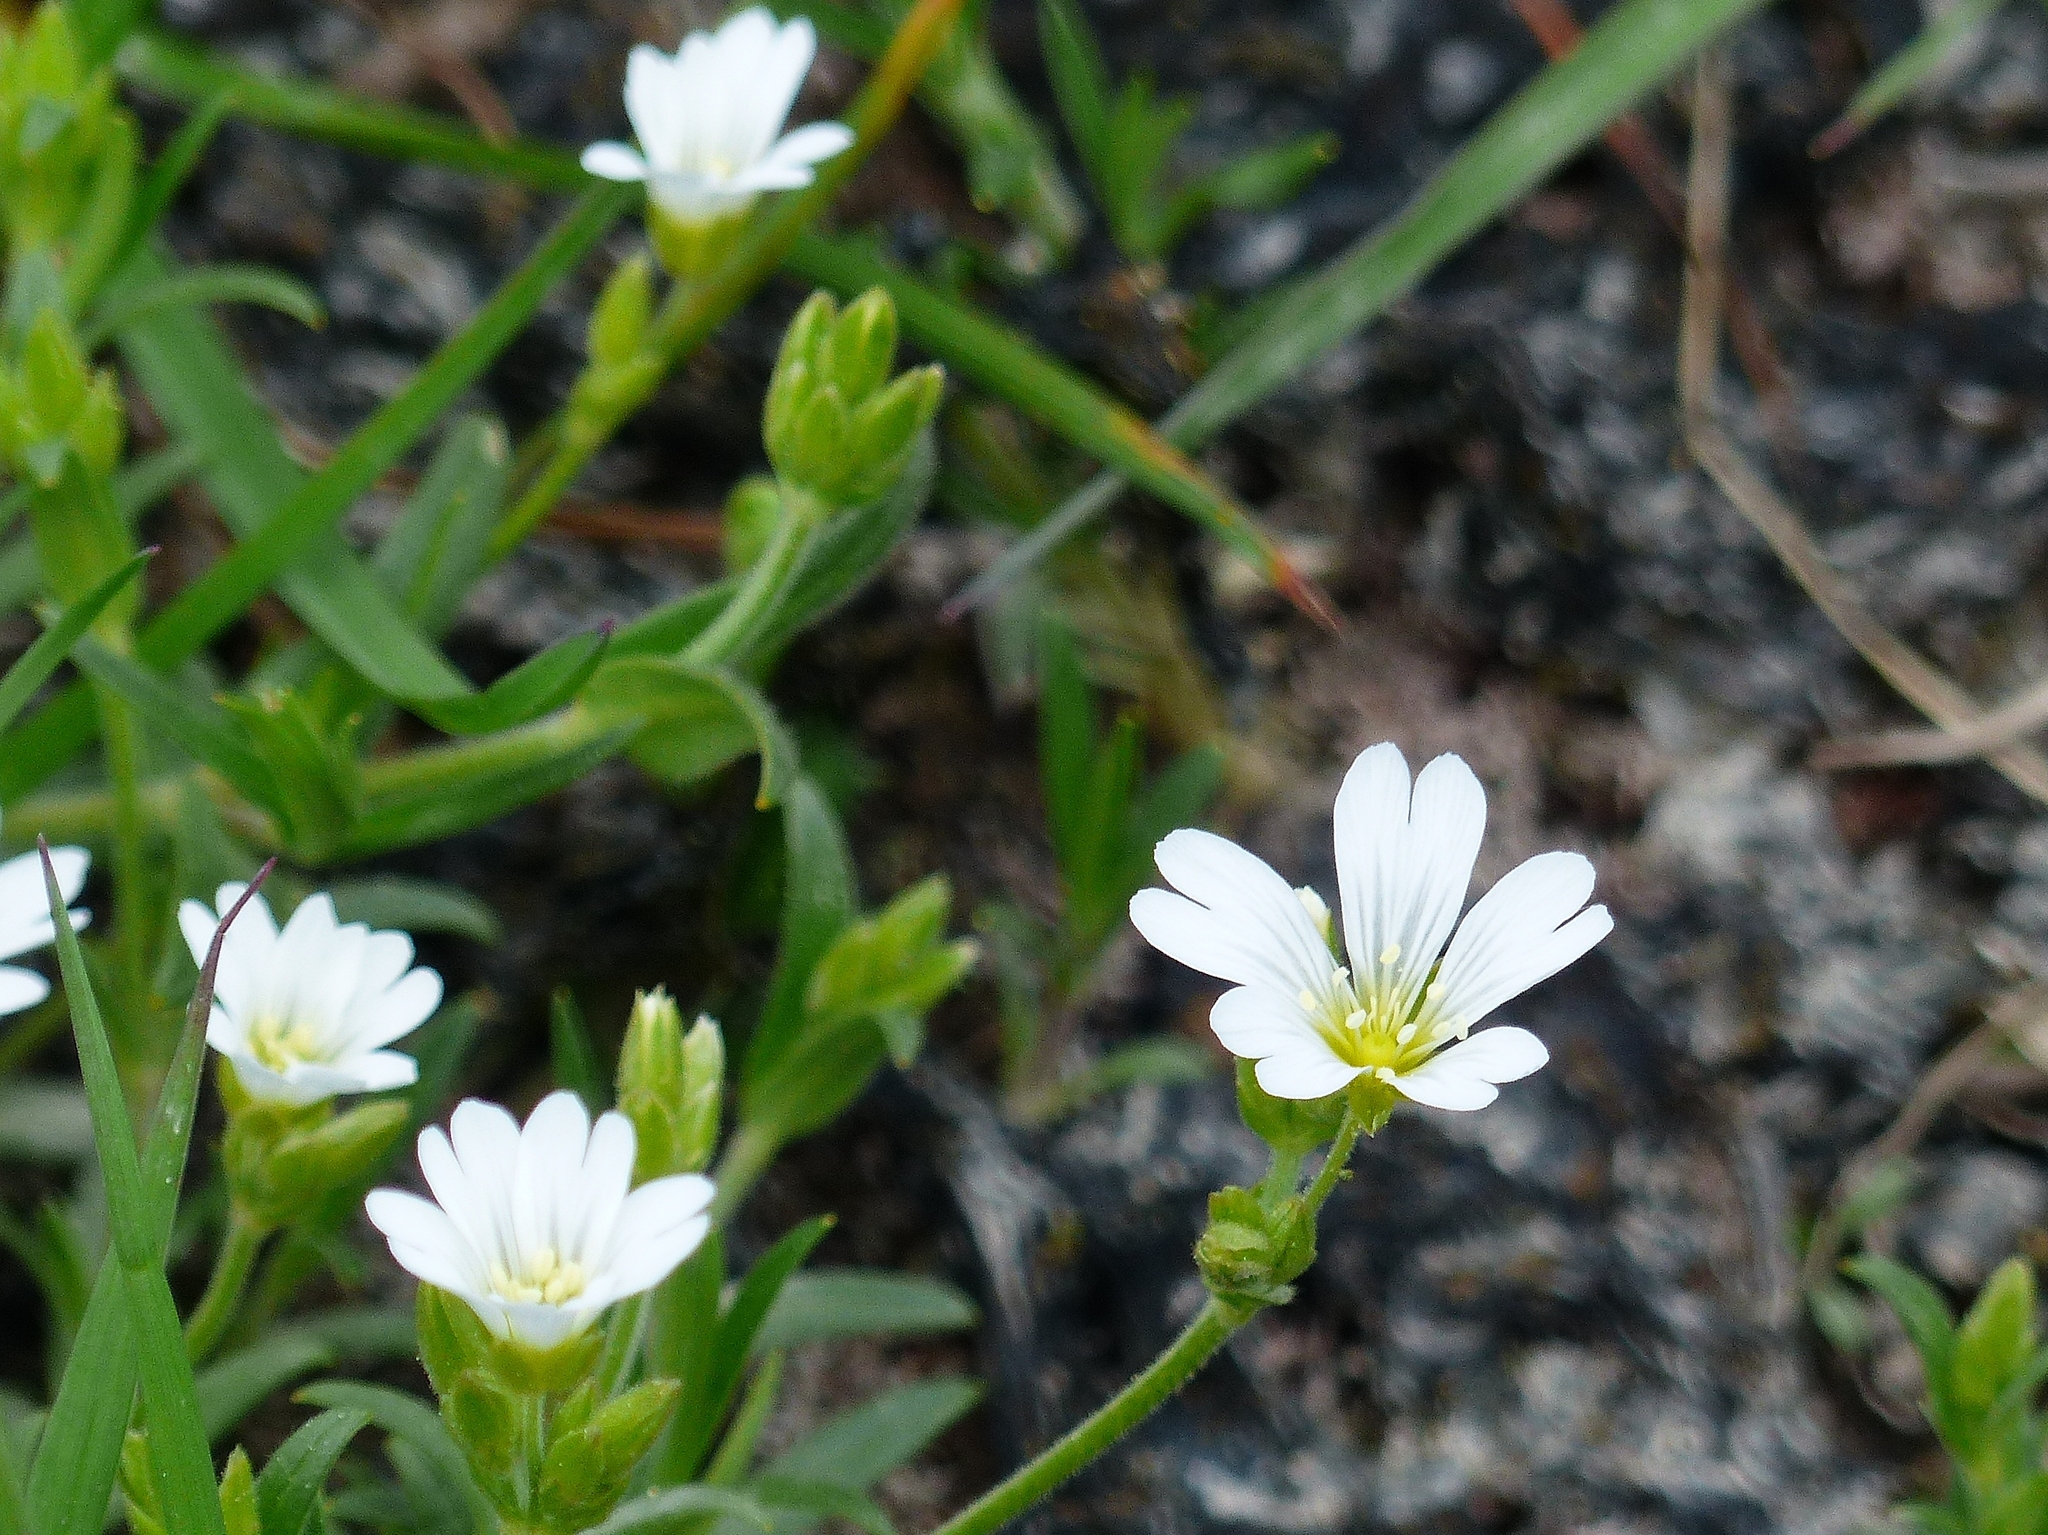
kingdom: Plantae
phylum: Tracheophyta
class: Magnoliopsida
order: Caryophyllales
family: Caryophyllaceae
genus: Cerastium
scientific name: Cerastium arvense
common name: Field mouse-ear
